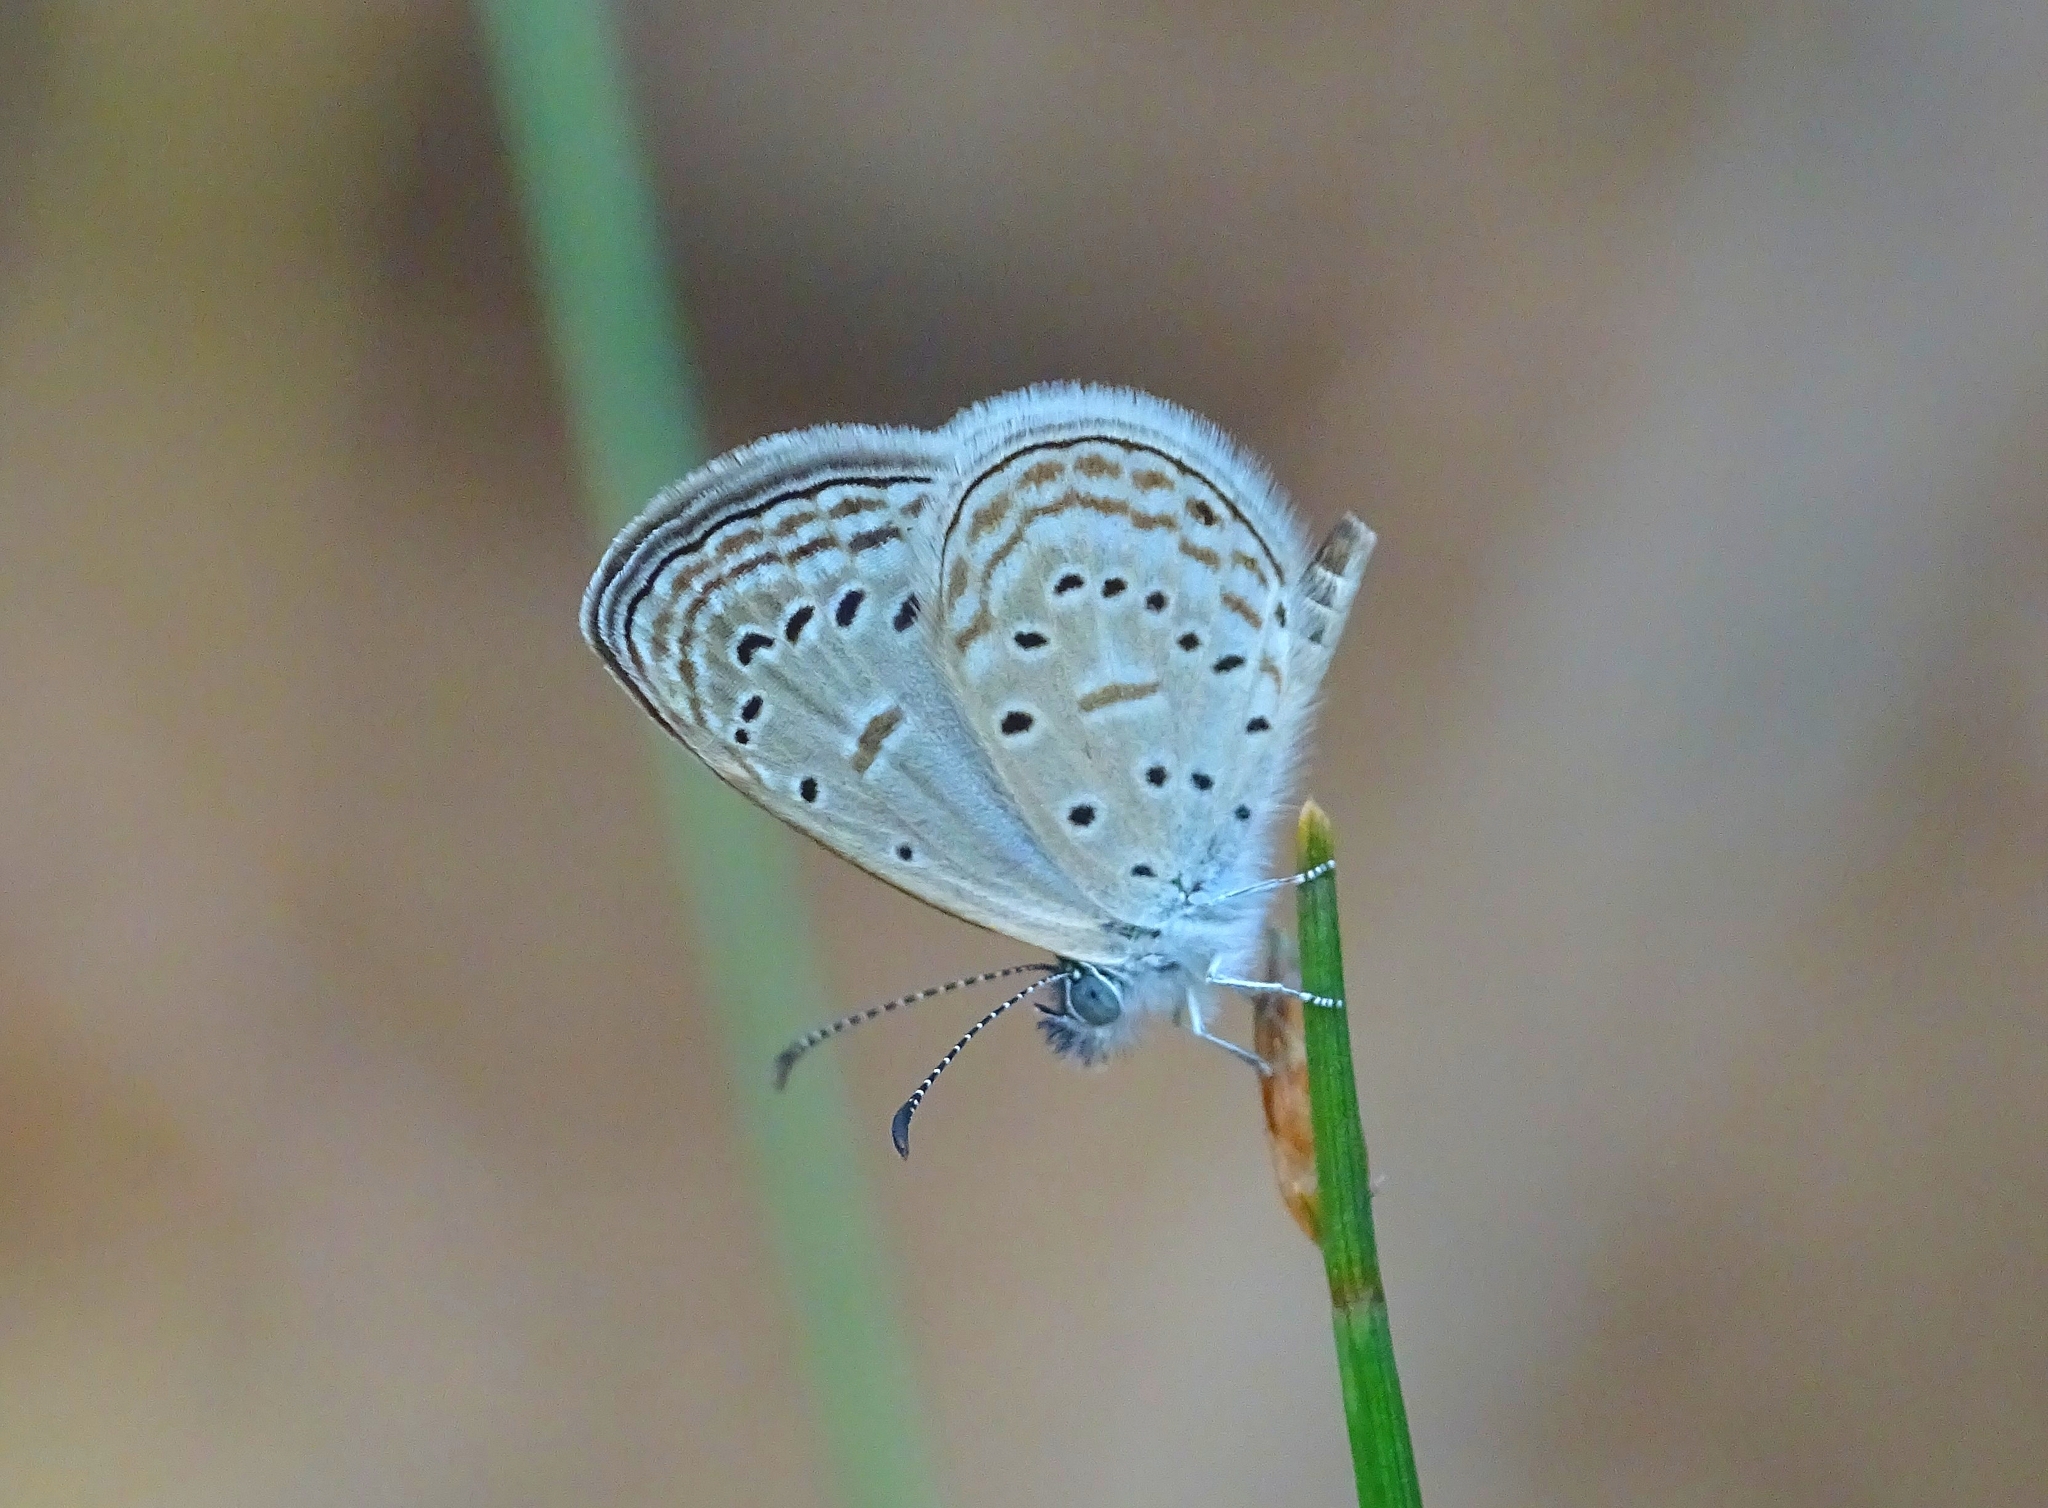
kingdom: Animalia
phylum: Arthropoda
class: Insecta
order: Lepidoptera
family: Lycaenidae
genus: Zizula
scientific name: Zizula hylax
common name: Gaika blue
